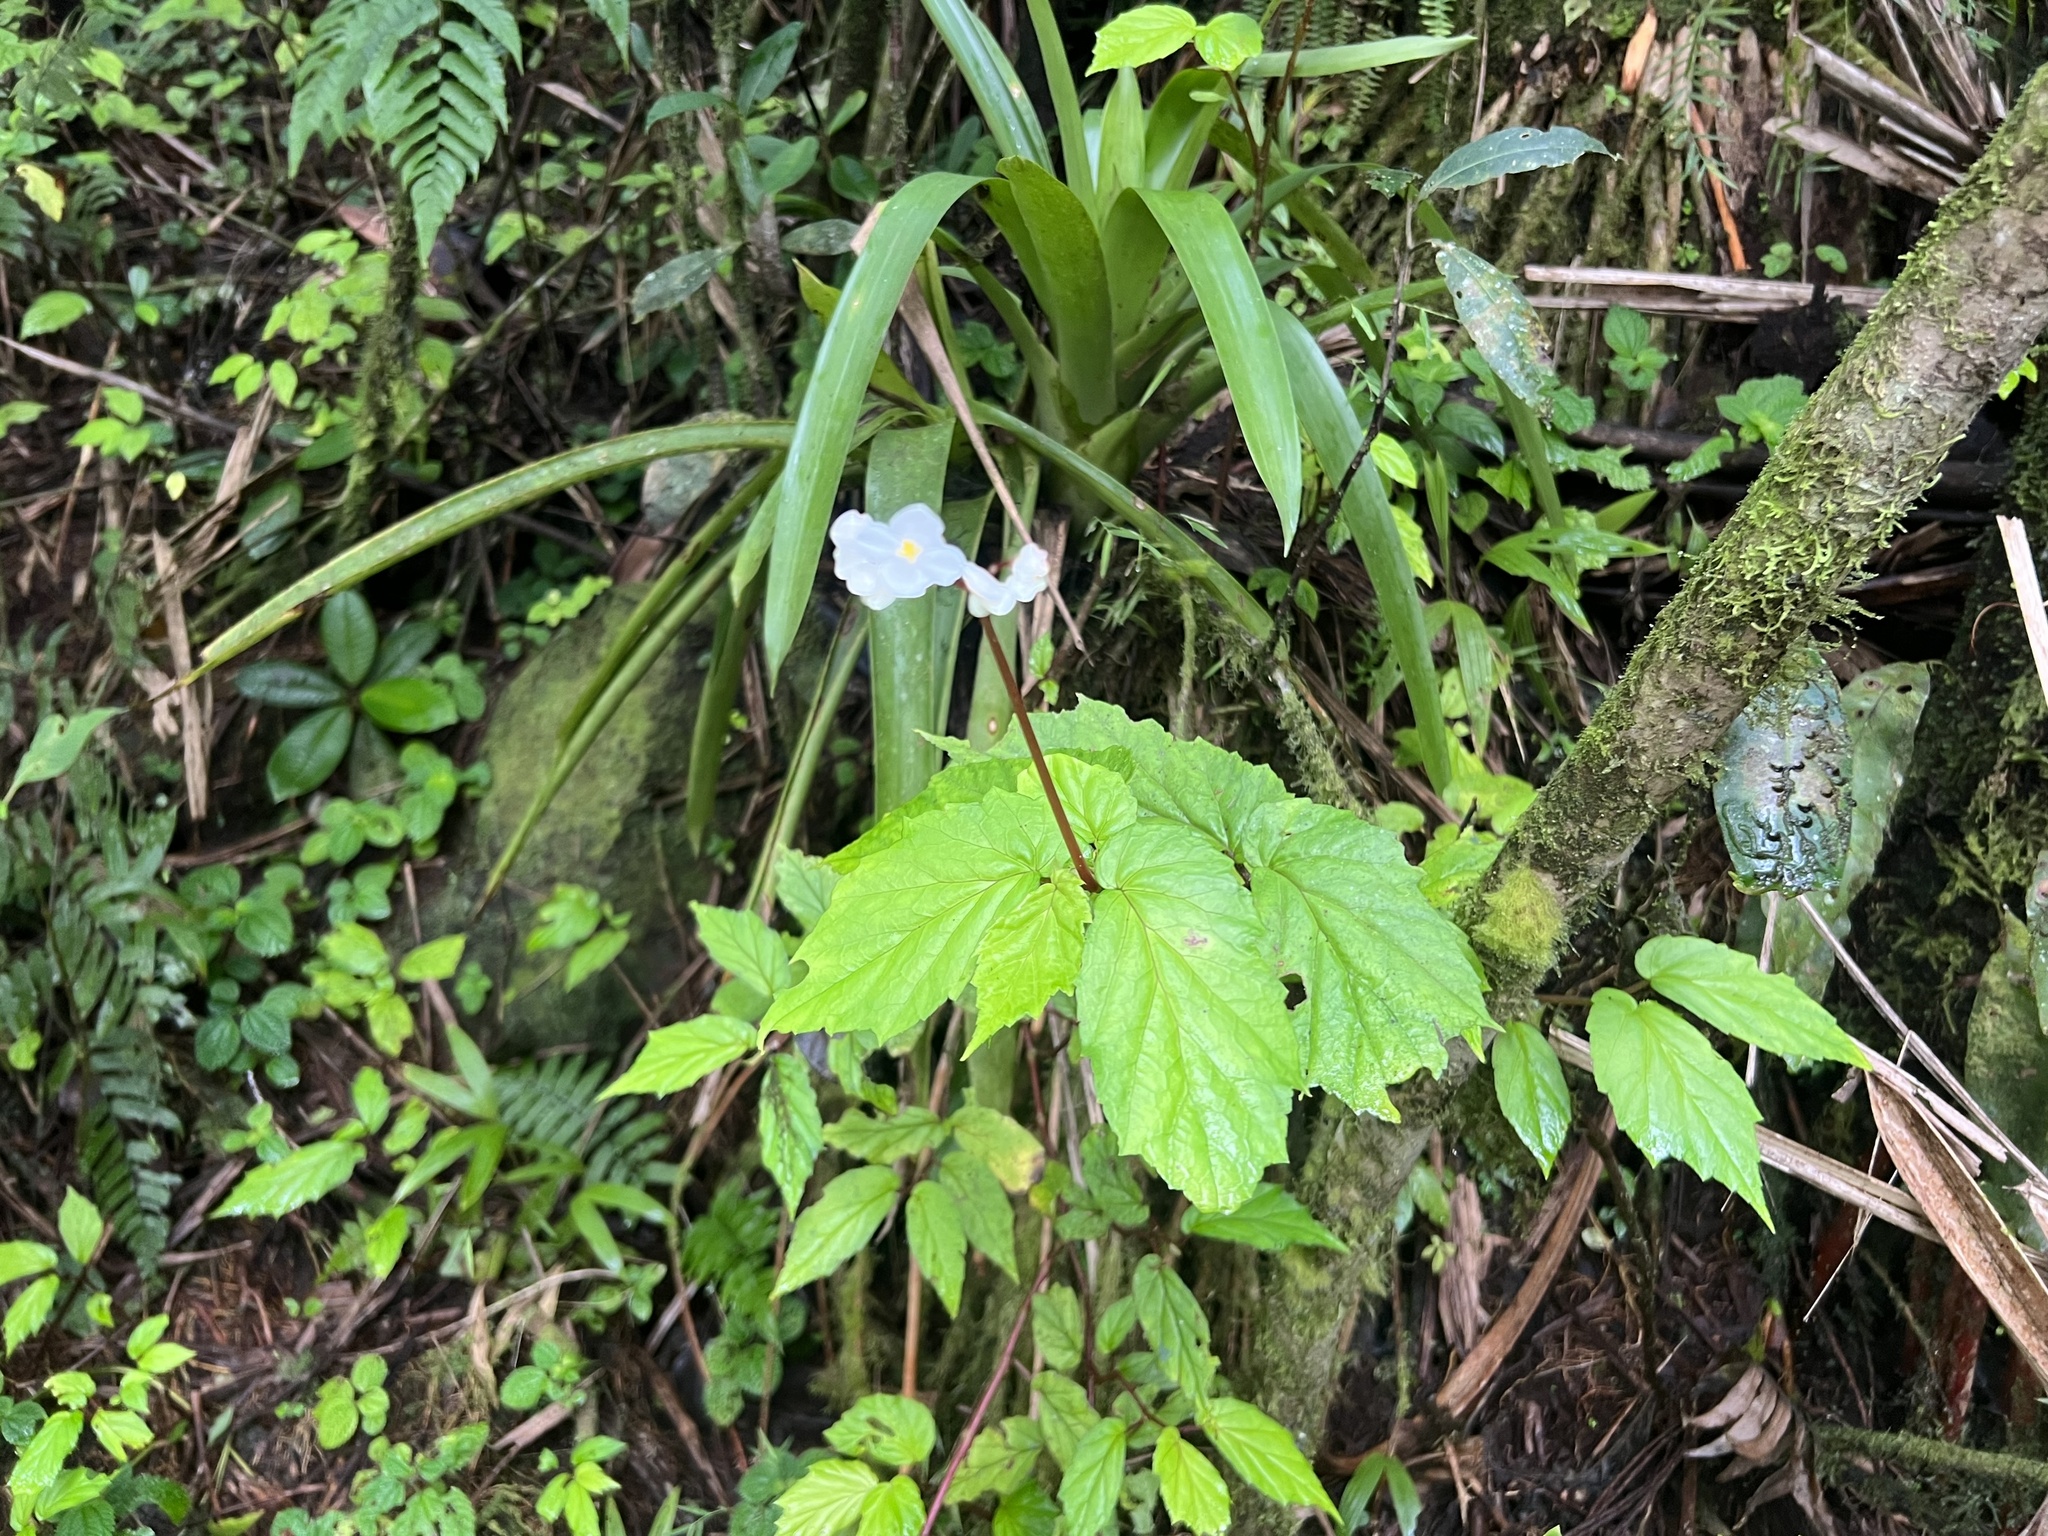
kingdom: Plantae
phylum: Tracheophyta
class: Magnoliopsida
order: Cucurbitales
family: Begoniaceae
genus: Begonia
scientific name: Begonia decandra
